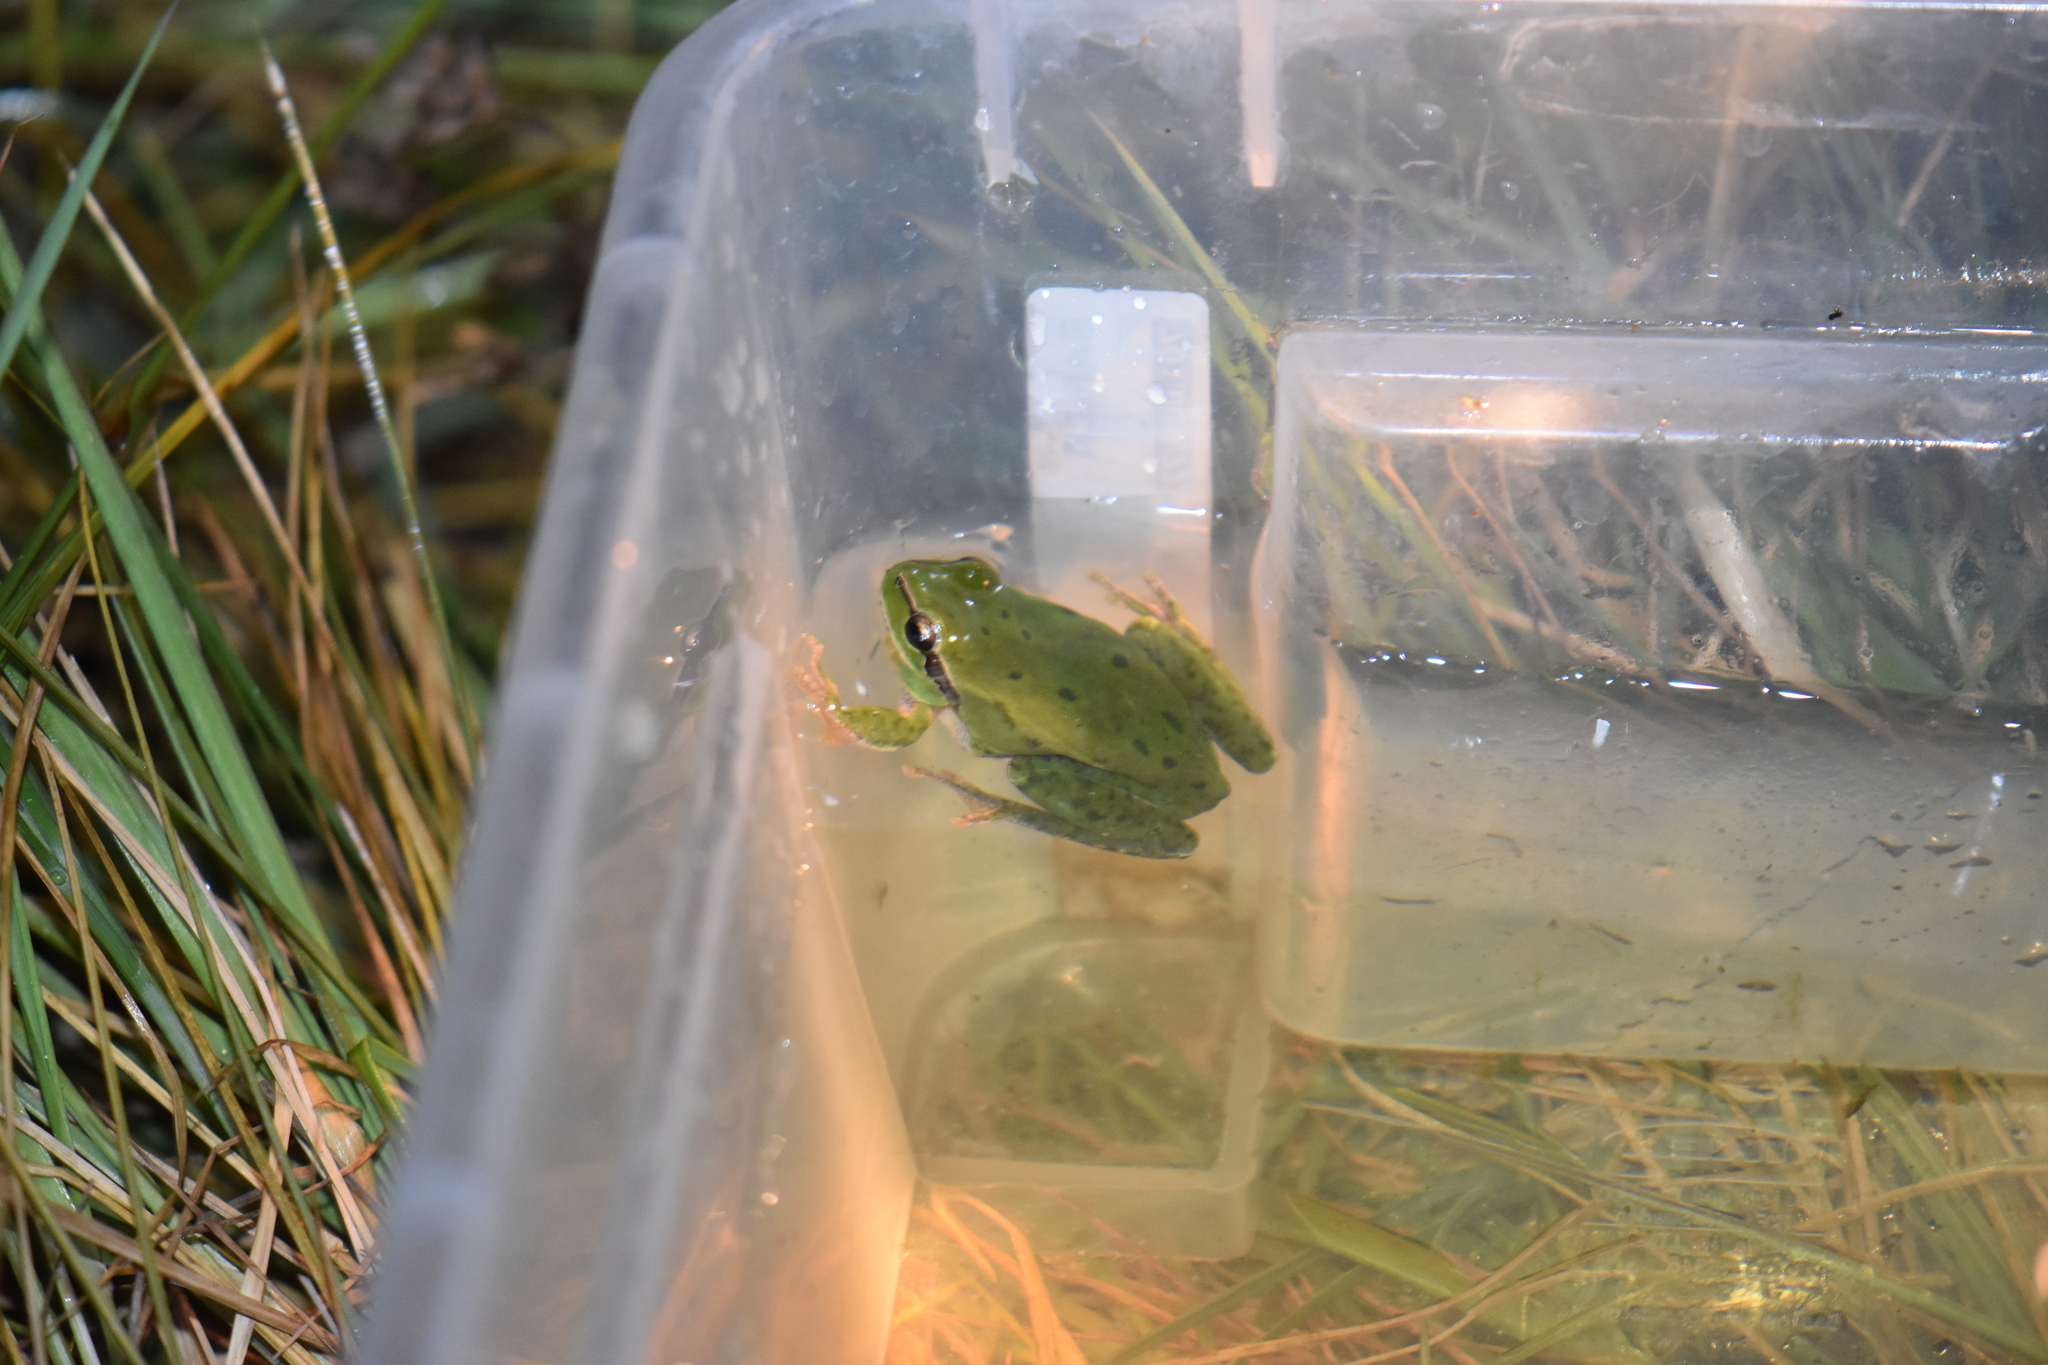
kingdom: Animalia
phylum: Chordata
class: Amphibia
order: Anura
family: Hylidae
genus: Hyla
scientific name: Hyla meridionalis
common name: Stripeless tree frog
